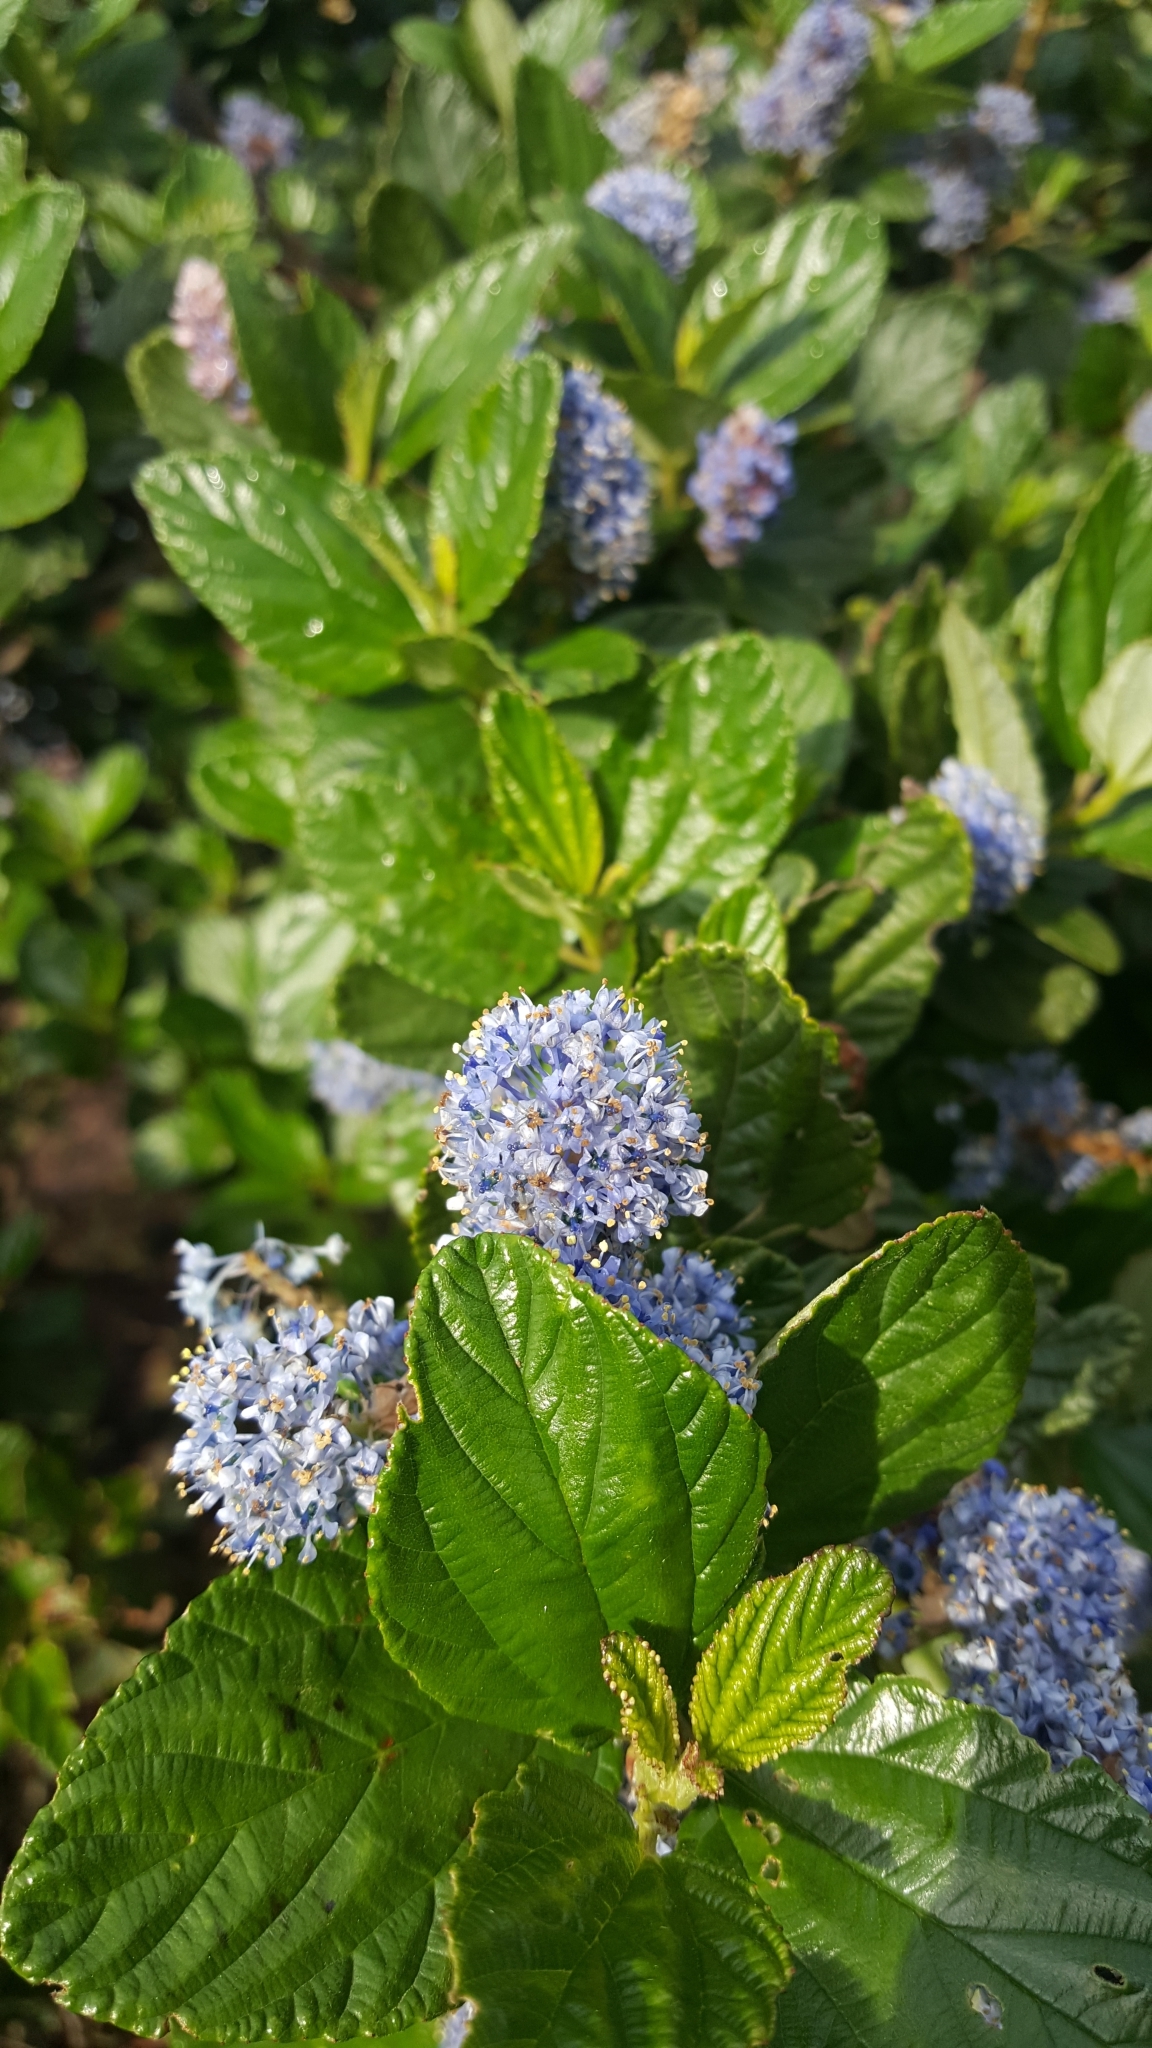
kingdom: Plantae
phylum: Tracheophyta
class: Magnoliopsida
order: Rosales
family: Rhamnaceae
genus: Ceanothus
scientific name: Ceanothus thyrsiflorus
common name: California-lilac
